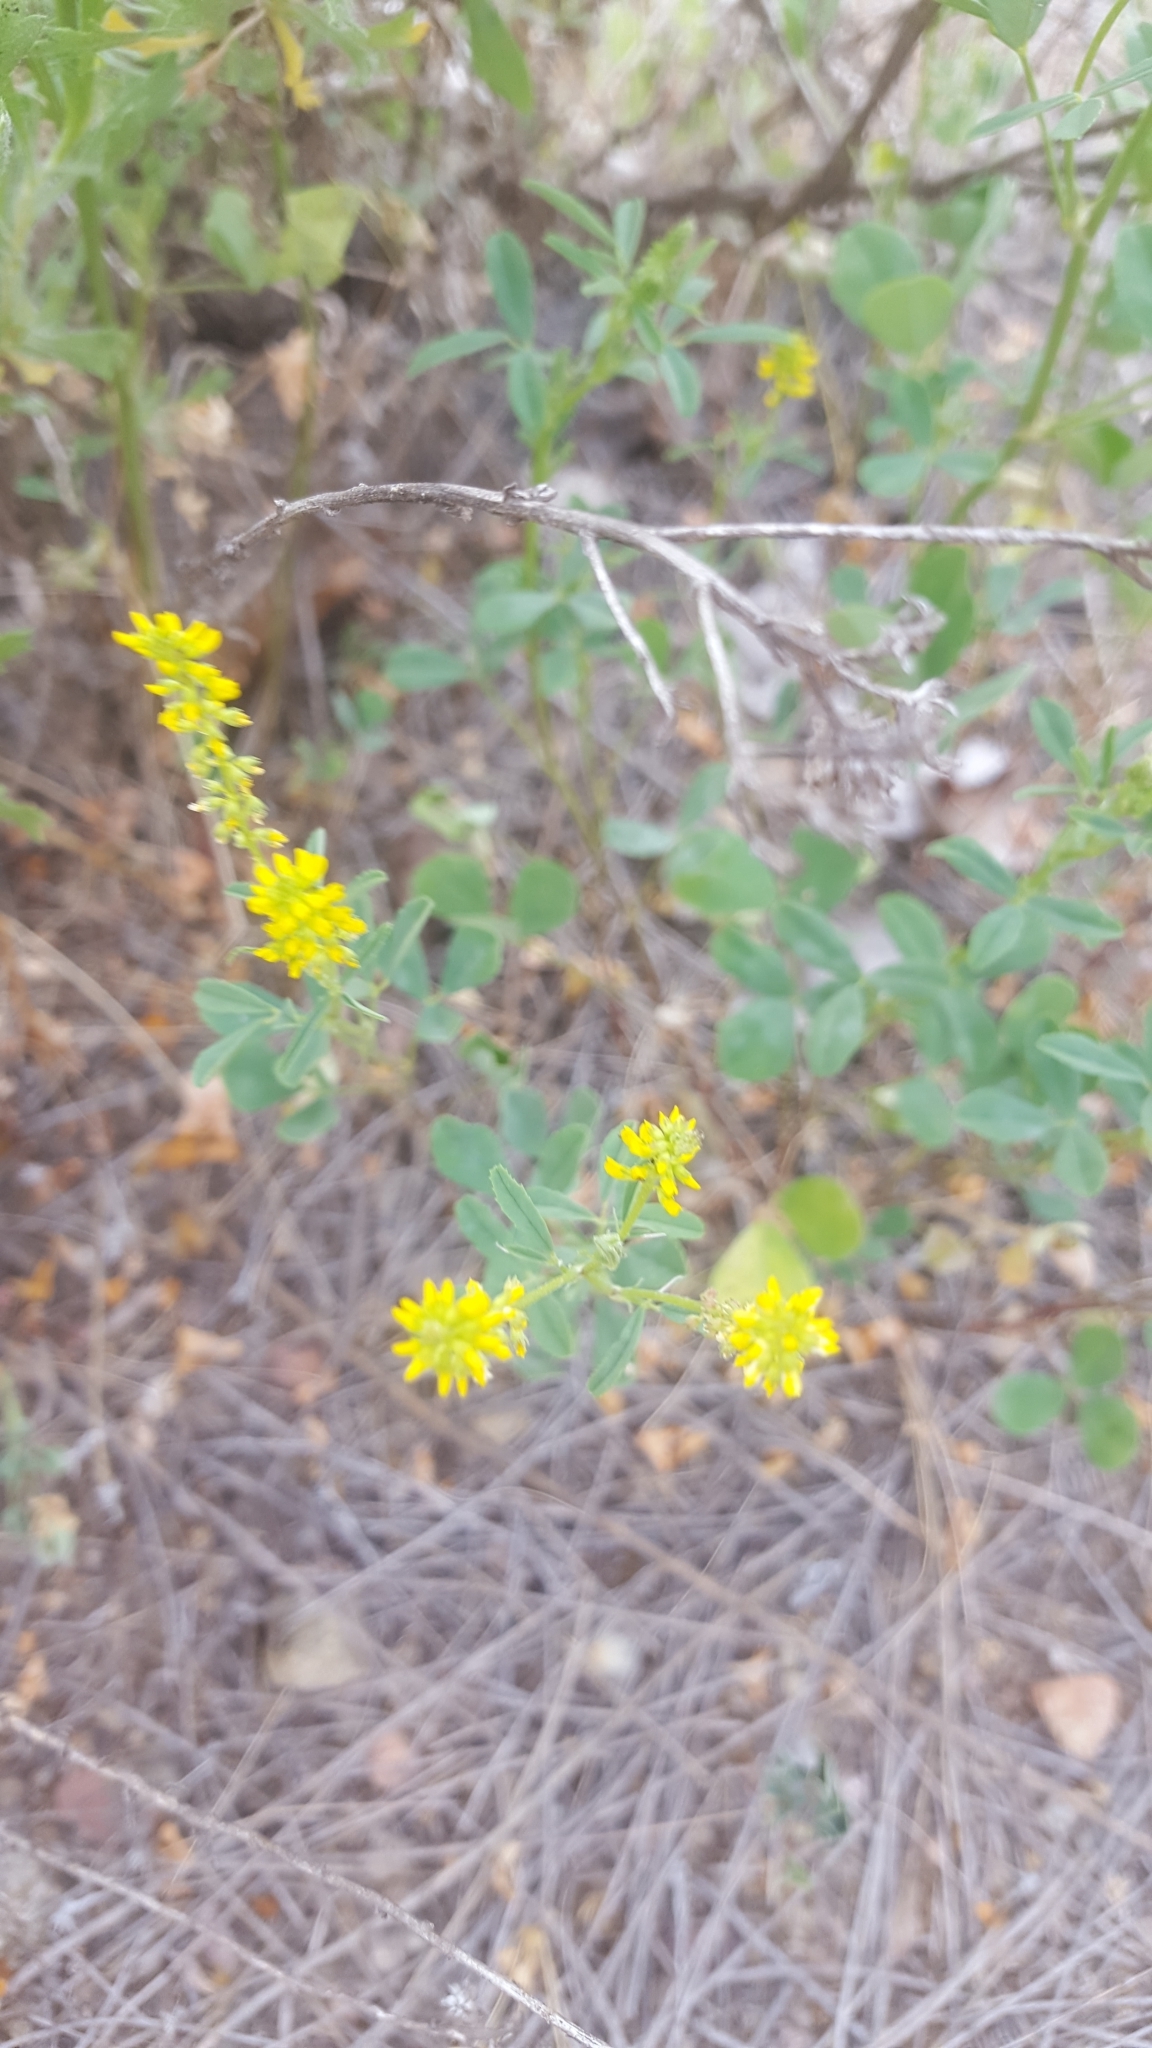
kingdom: Plantae
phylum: Tracheophyta
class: Magnoliopsida
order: Fabales
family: Fabaceae
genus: Melilotus
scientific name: Melilotus indicus
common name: Small melilot
